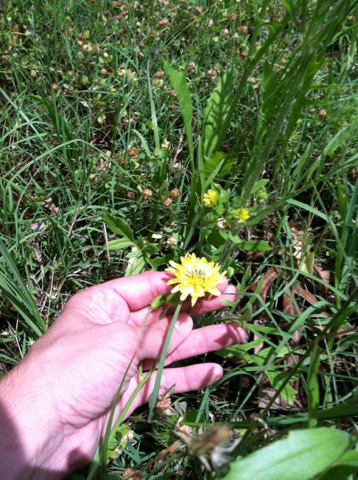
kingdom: Plantae
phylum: Tracheophyta
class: Magnoliopsida
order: Asterales
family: Asteraceae
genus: Pyrrhopappus
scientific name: Pyrrhopappus pauciflorus
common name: Texas false dandelion
